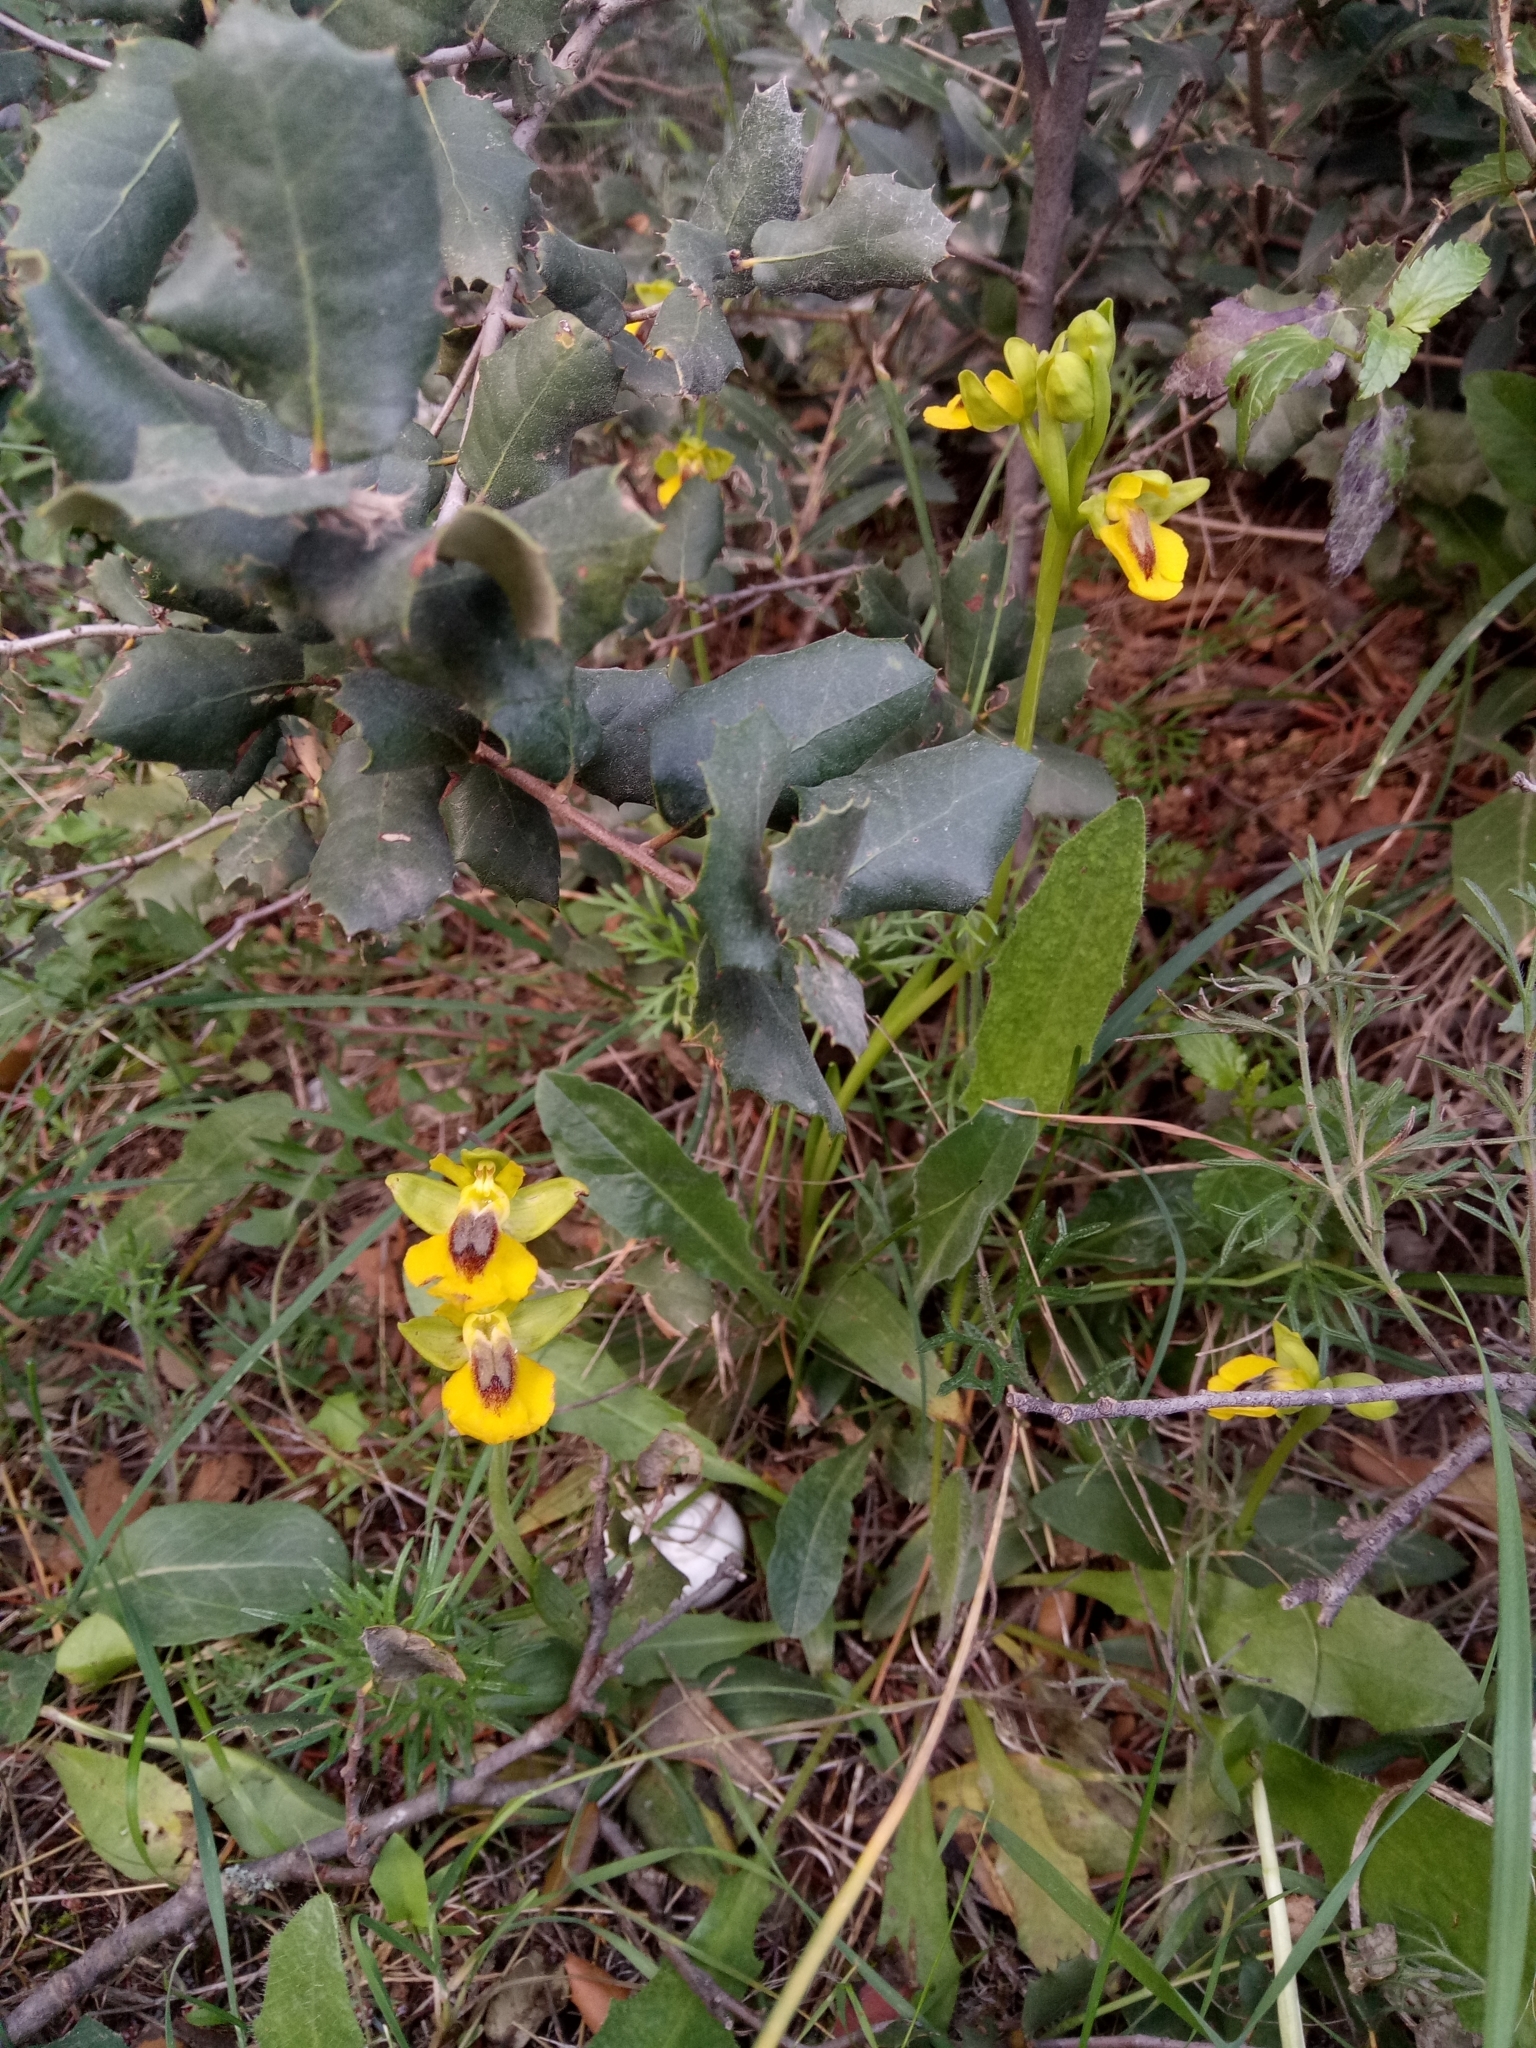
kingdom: Plantae
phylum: Tracheophyta
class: Liliopsida
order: Asparagales
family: Orchidaceae
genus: Ophrys
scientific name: Ophrys lutea
